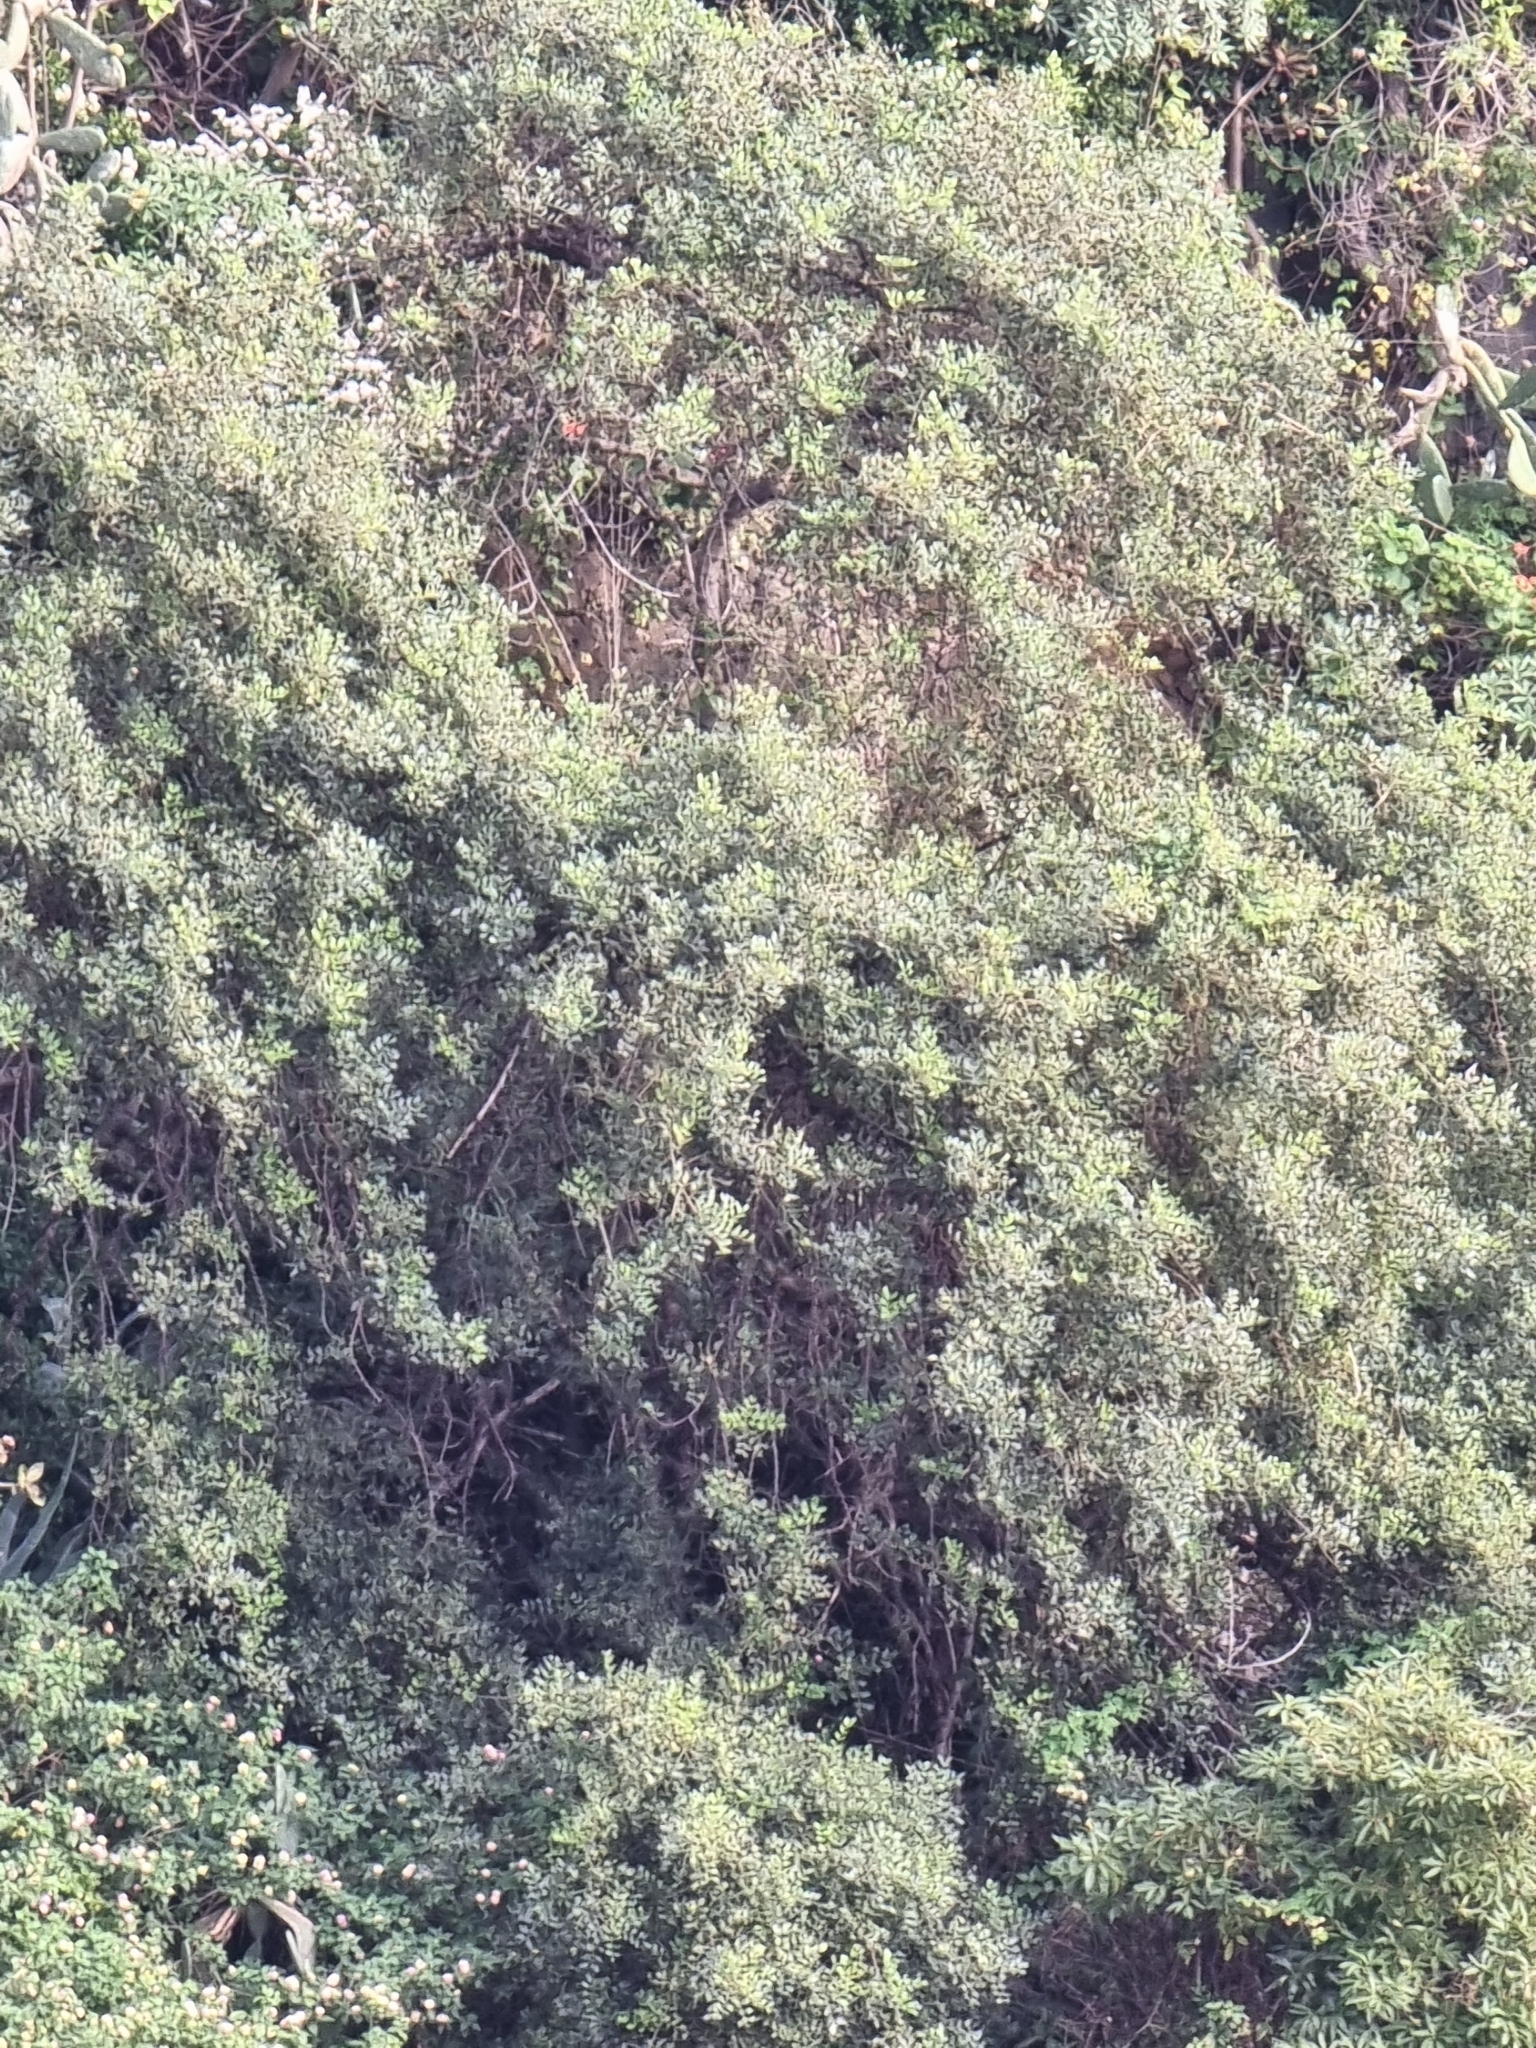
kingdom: Plantae
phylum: Tracheophyta
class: Magnoliopsida
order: Fabales
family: Fabaceae
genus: Ceratonia
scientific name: Ceratonia siliqua
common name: Carob
